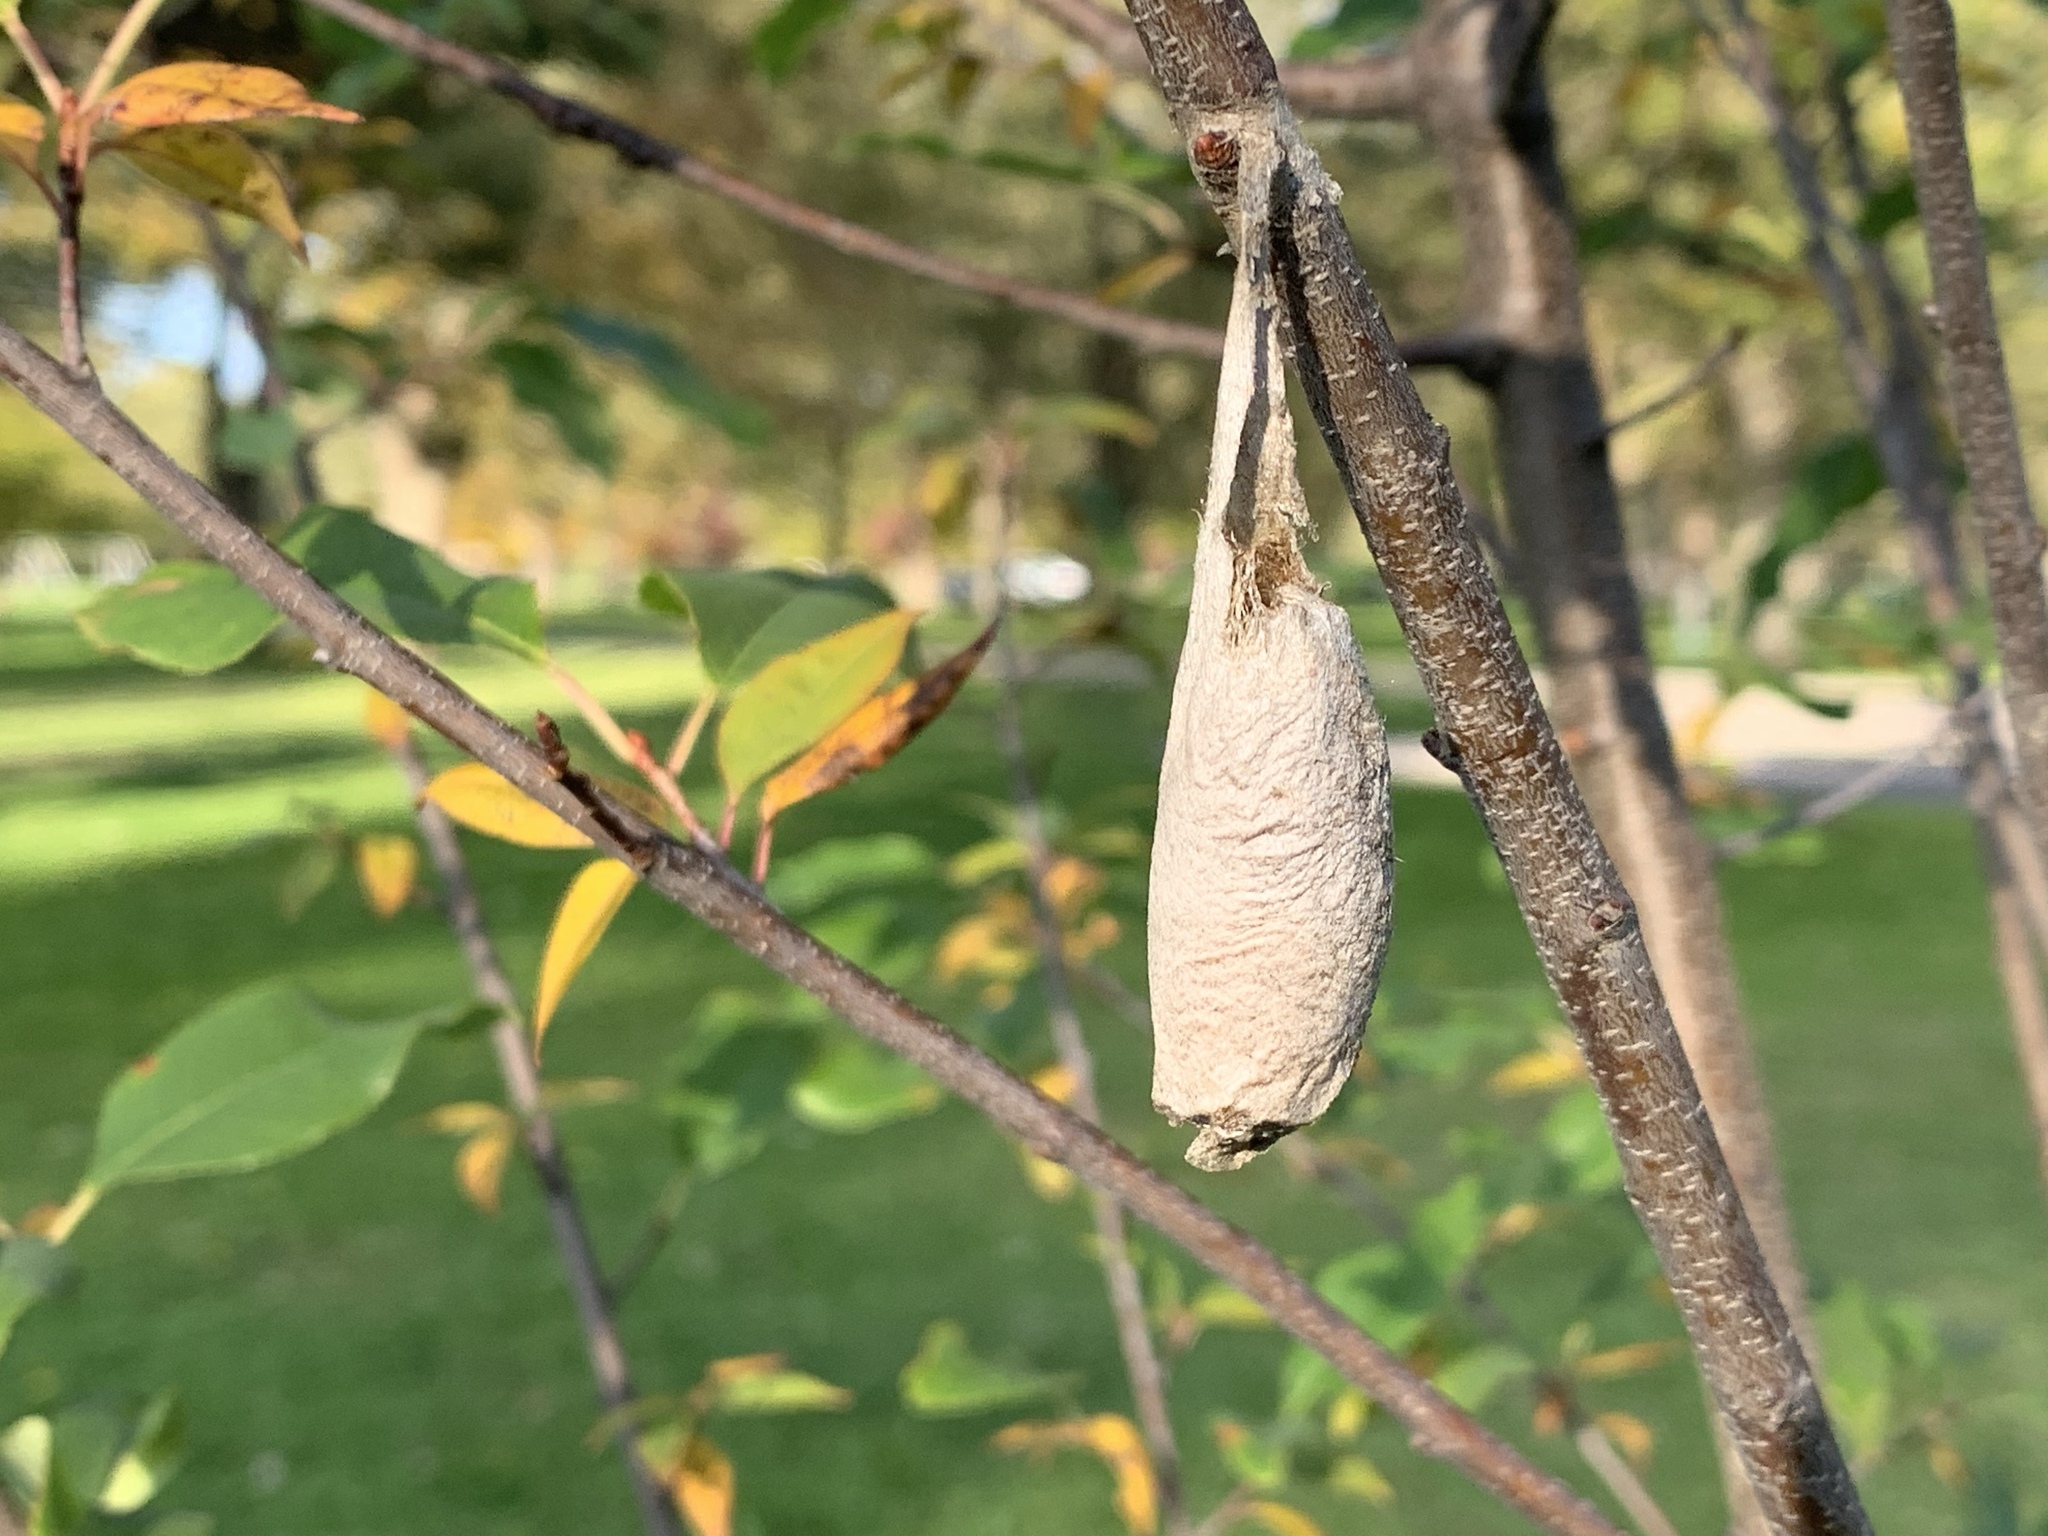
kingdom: Animalia
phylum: Arthropoda
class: Insecta
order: Lepidoptera
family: Saturniidae
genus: Callosamia
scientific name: Callosamia promethea
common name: Promethea silkmoth
